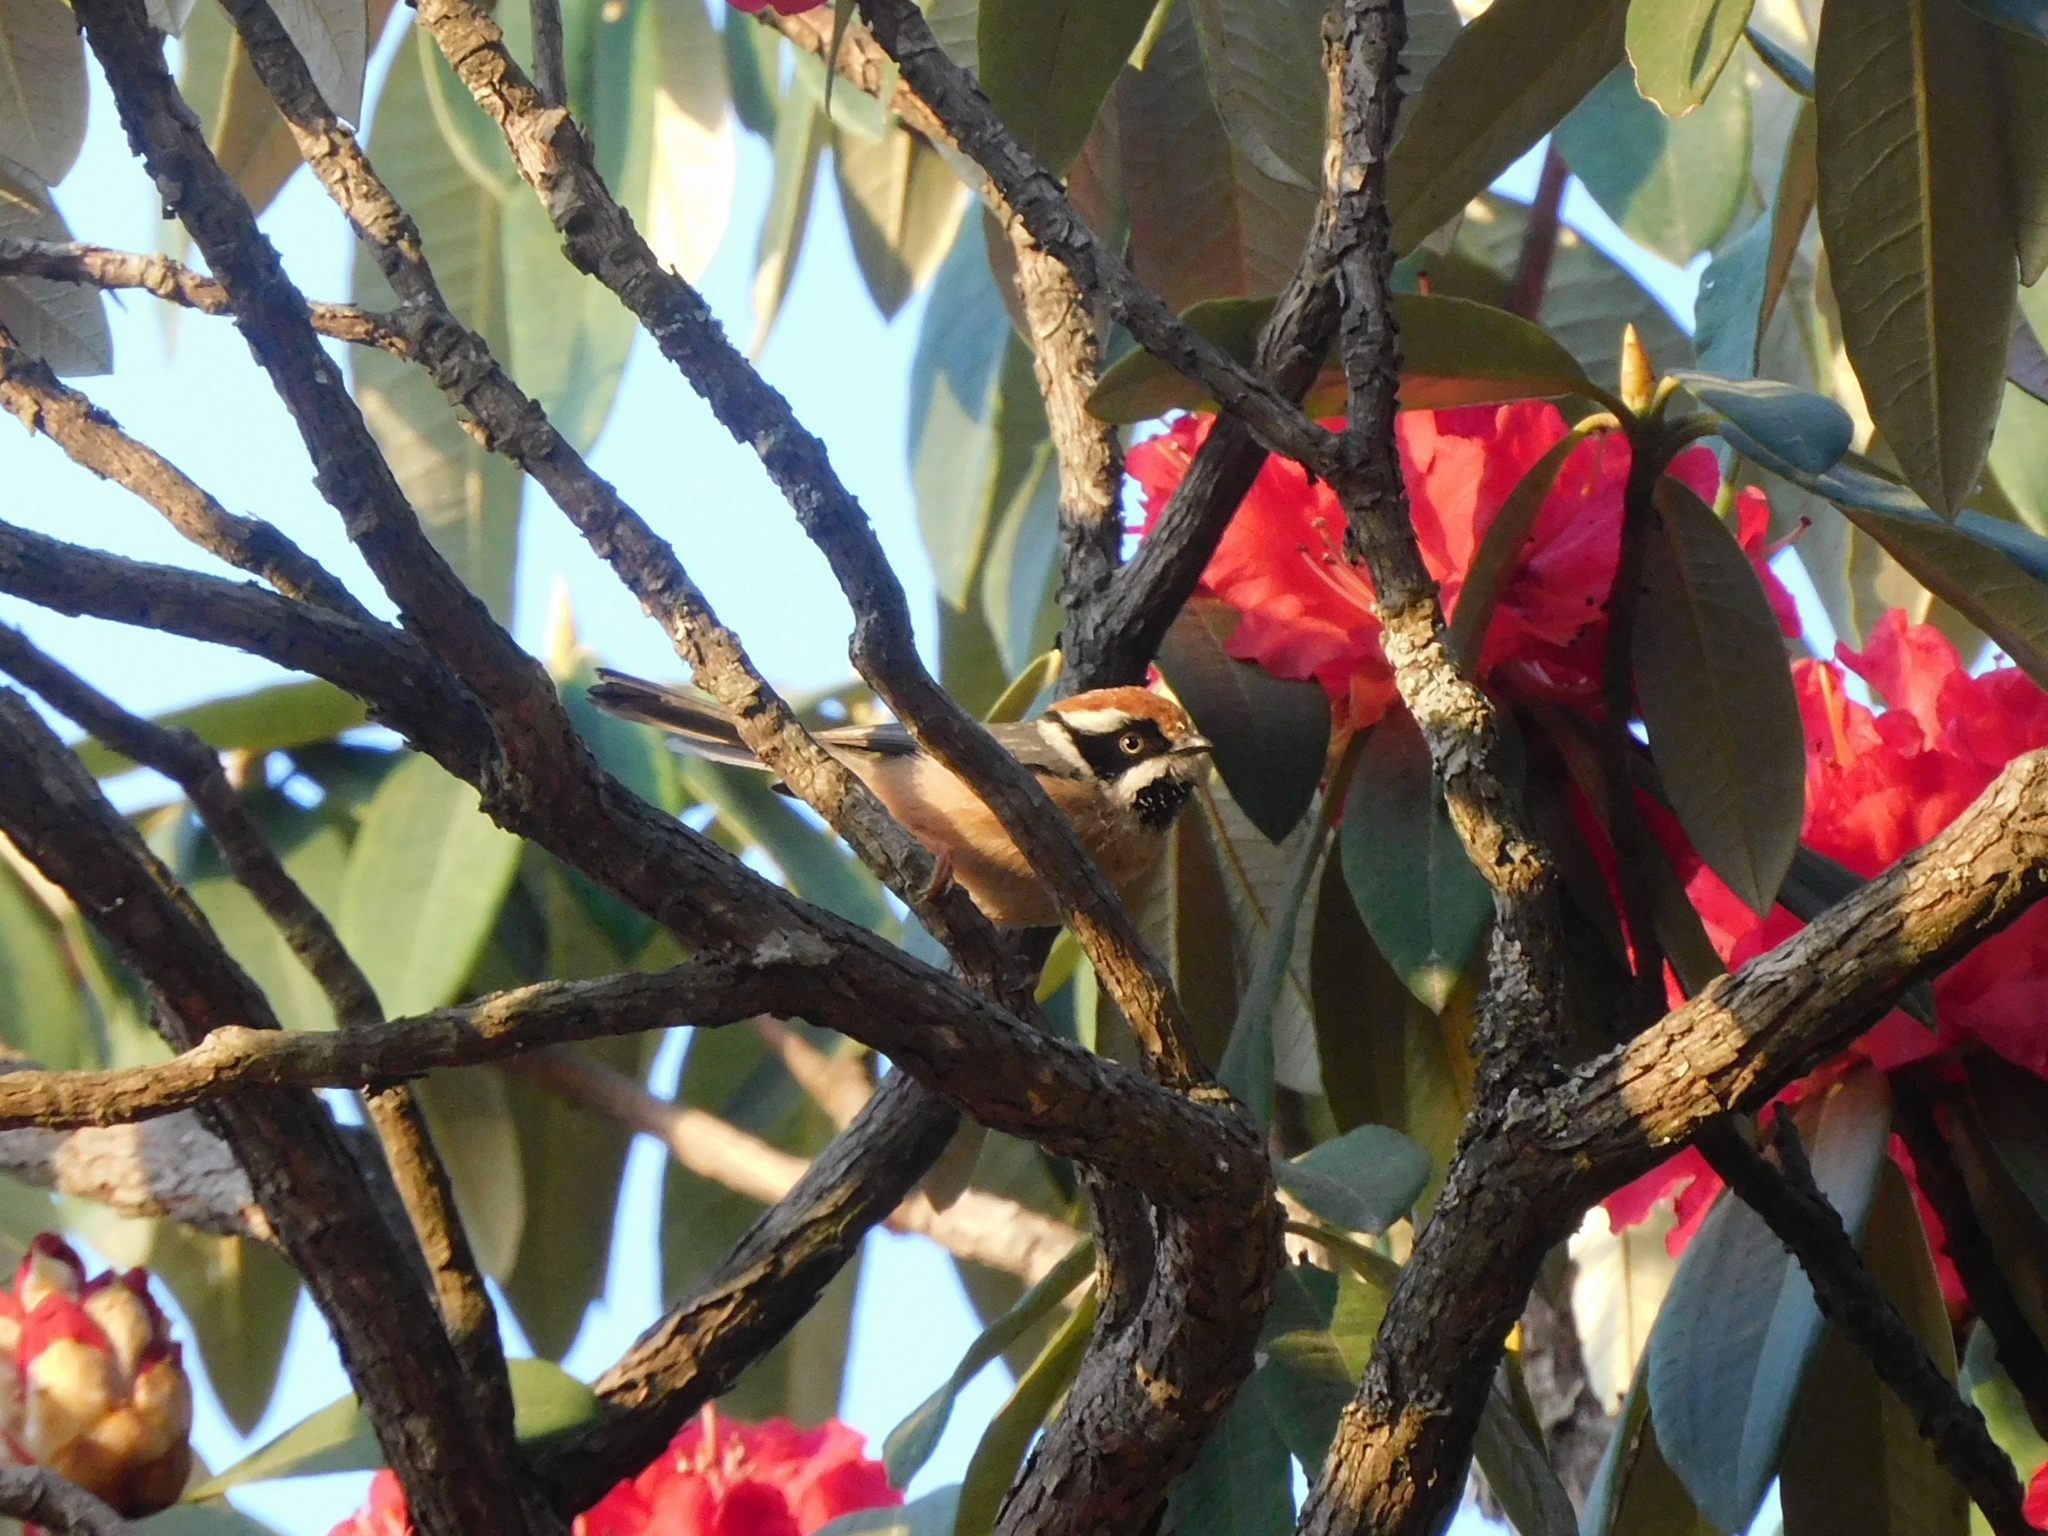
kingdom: Animalia
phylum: Chordata
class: Aves
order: Passeriformes
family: Aegithalidae
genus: Aegithalos
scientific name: Aegithalos concinnus
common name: Black-throated bushtit
